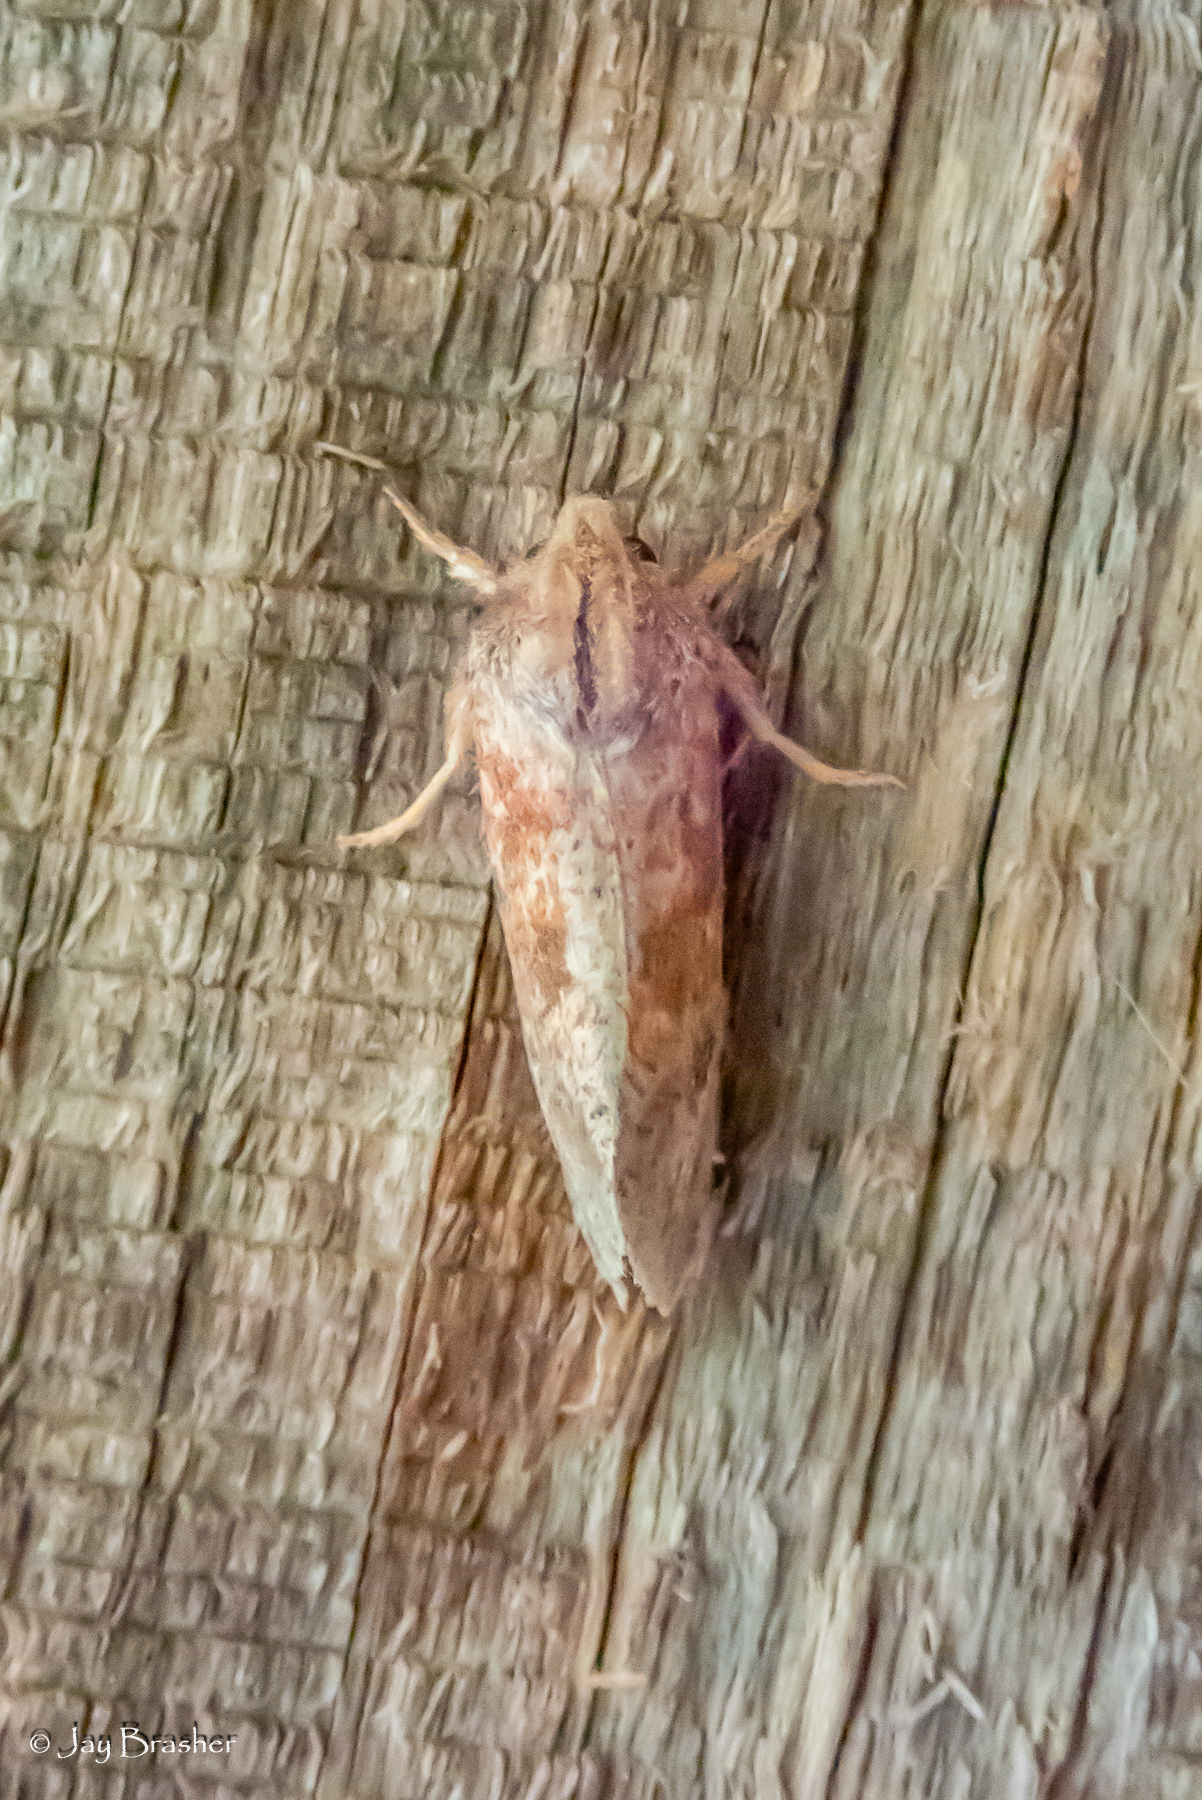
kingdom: Animalia
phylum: Arthropoda
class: Insecta
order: Lepidoptera
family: Tineidae
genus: Acrolophus
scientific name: Acrolophus plumifrontella
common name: Eastern grass tubeworm moth
